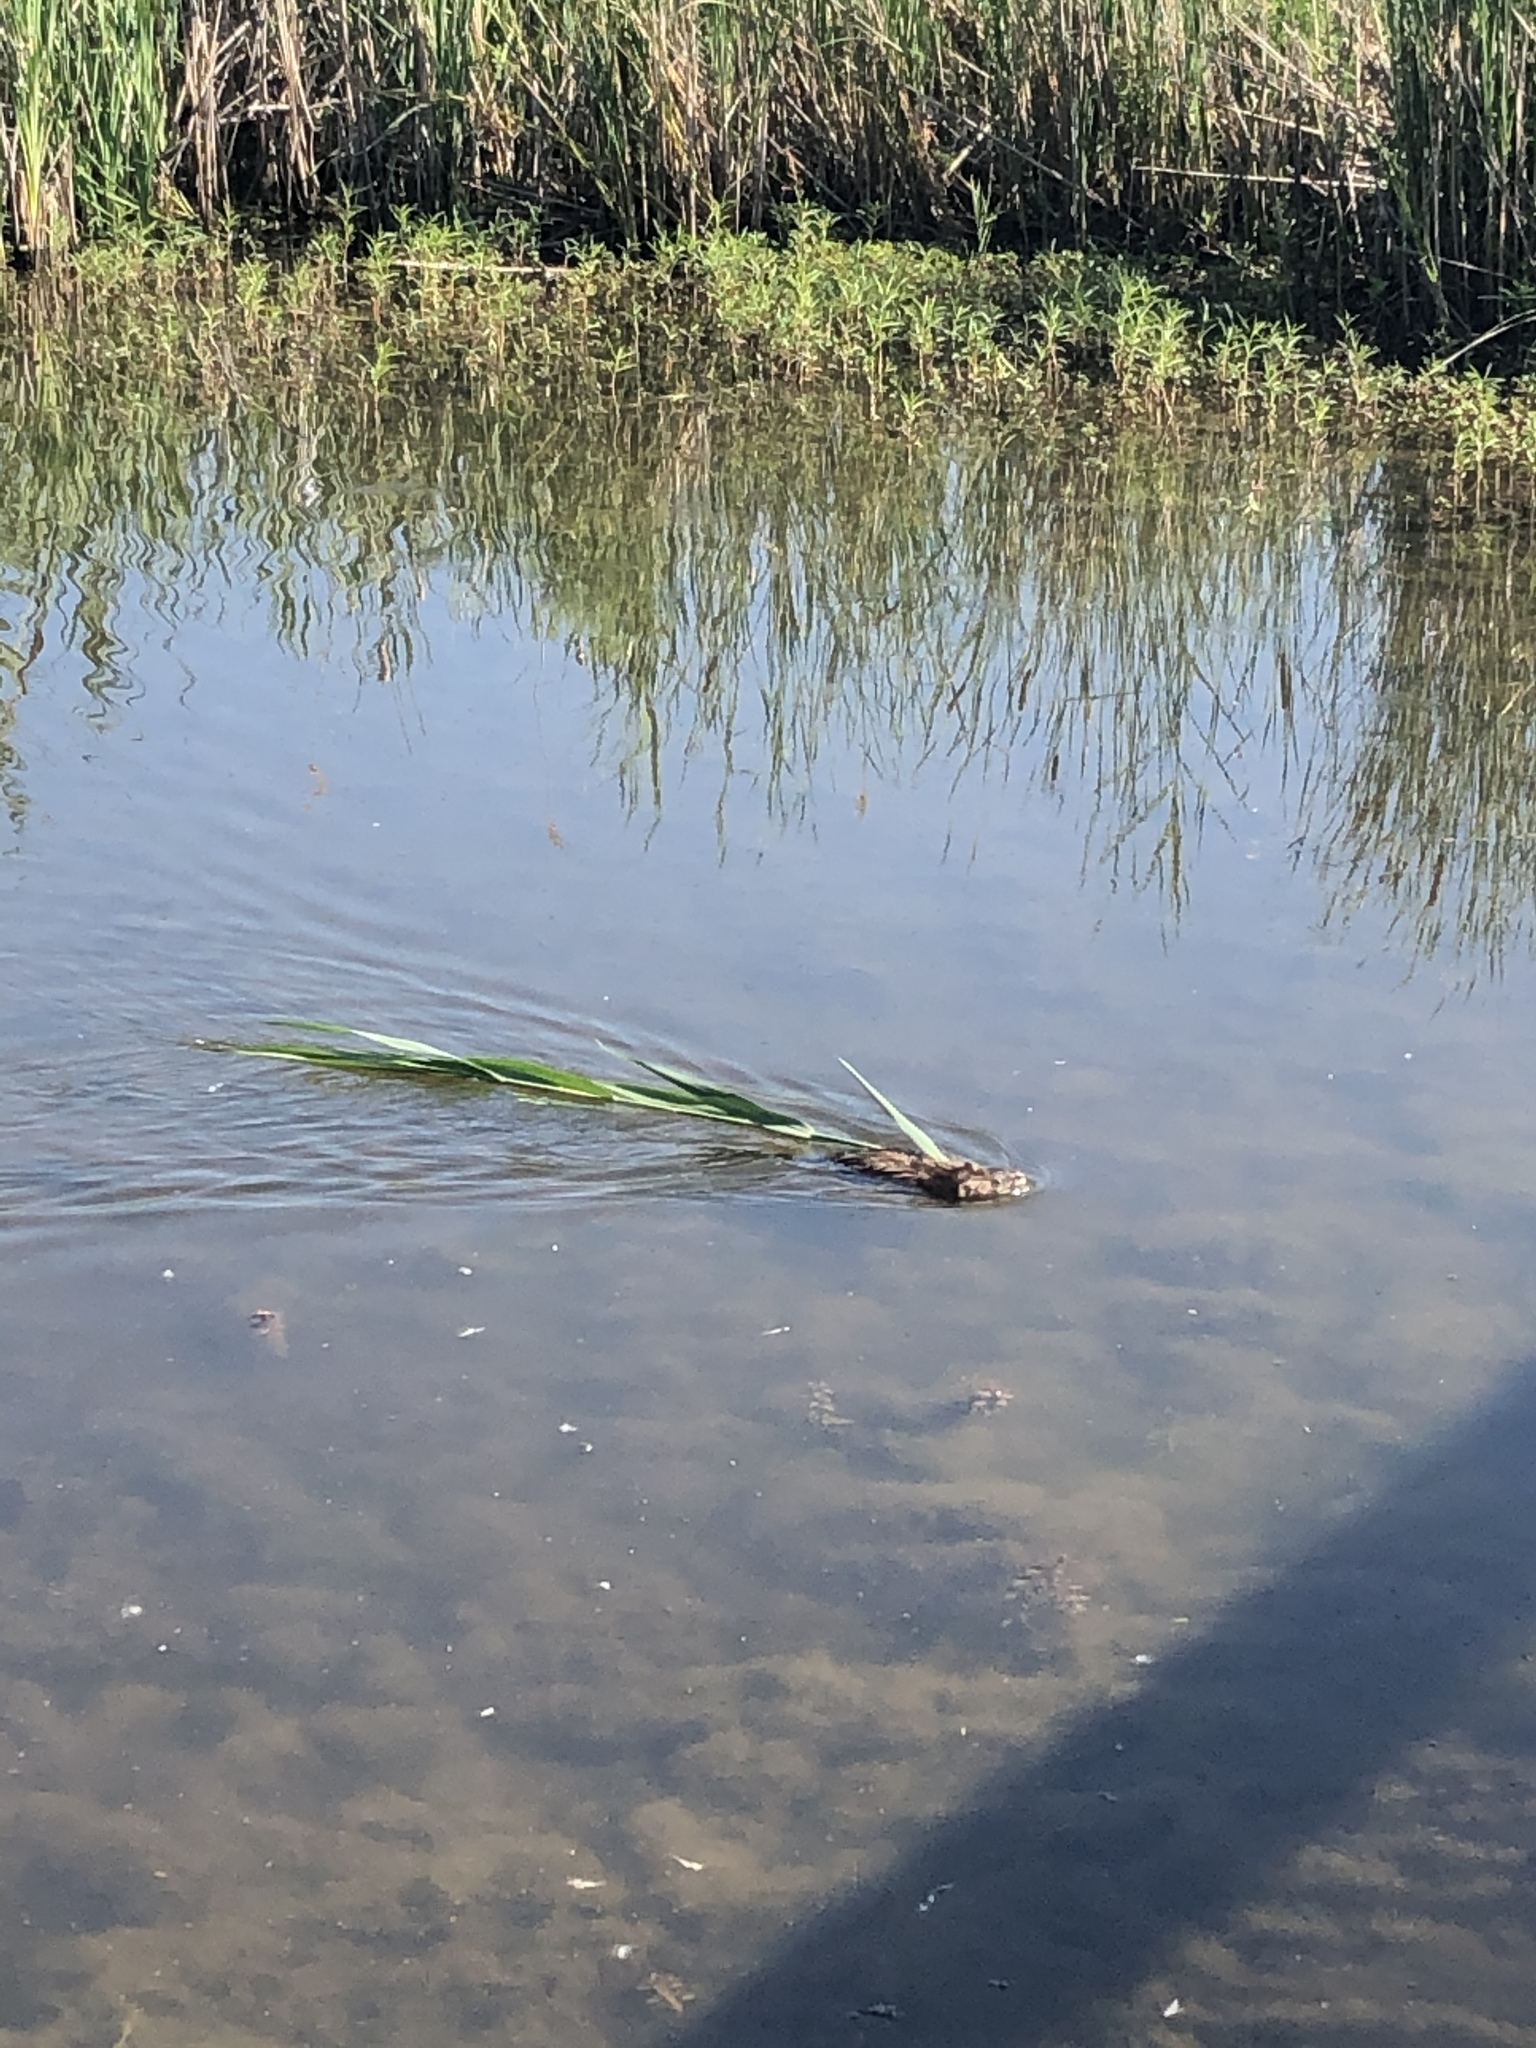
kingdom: Animalia
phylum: Chordata
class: Mammalia
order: Rodentia
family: Cricetidae
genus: Ondatra
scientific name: Ondatra zibethicus
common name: Muskrat
